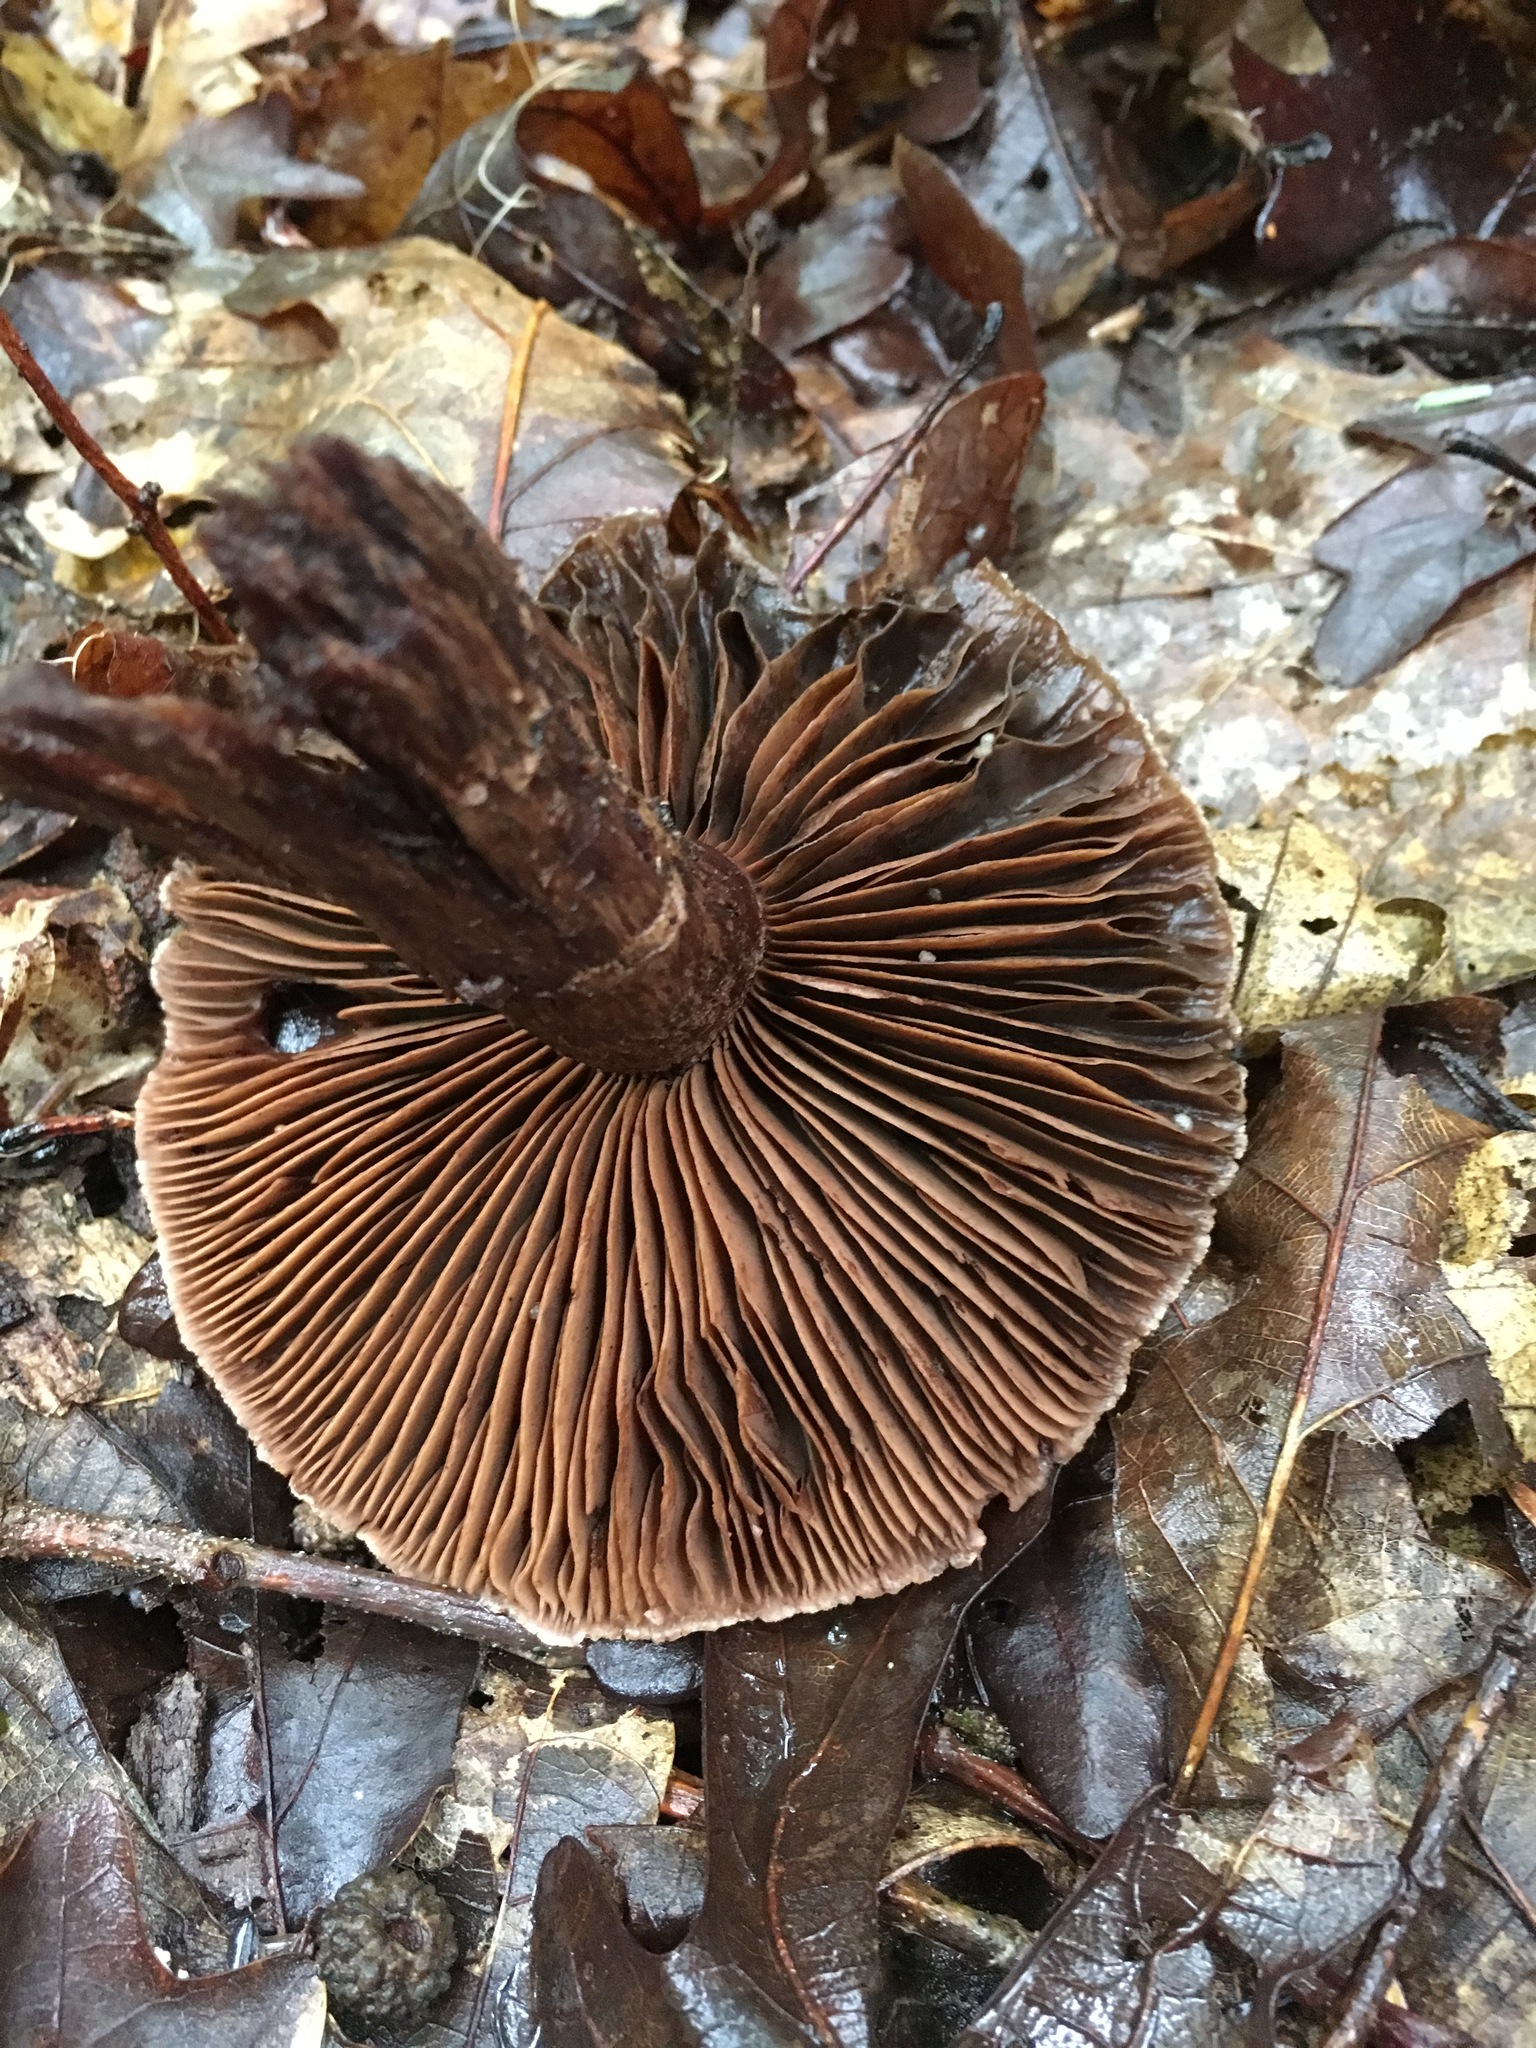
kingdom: Fungi
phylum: Basidiomycota
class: Agaricomycetes
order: Agaricales
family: Cortinariaceae
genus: Cortinarius
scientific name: Cortinarius squamulosus
